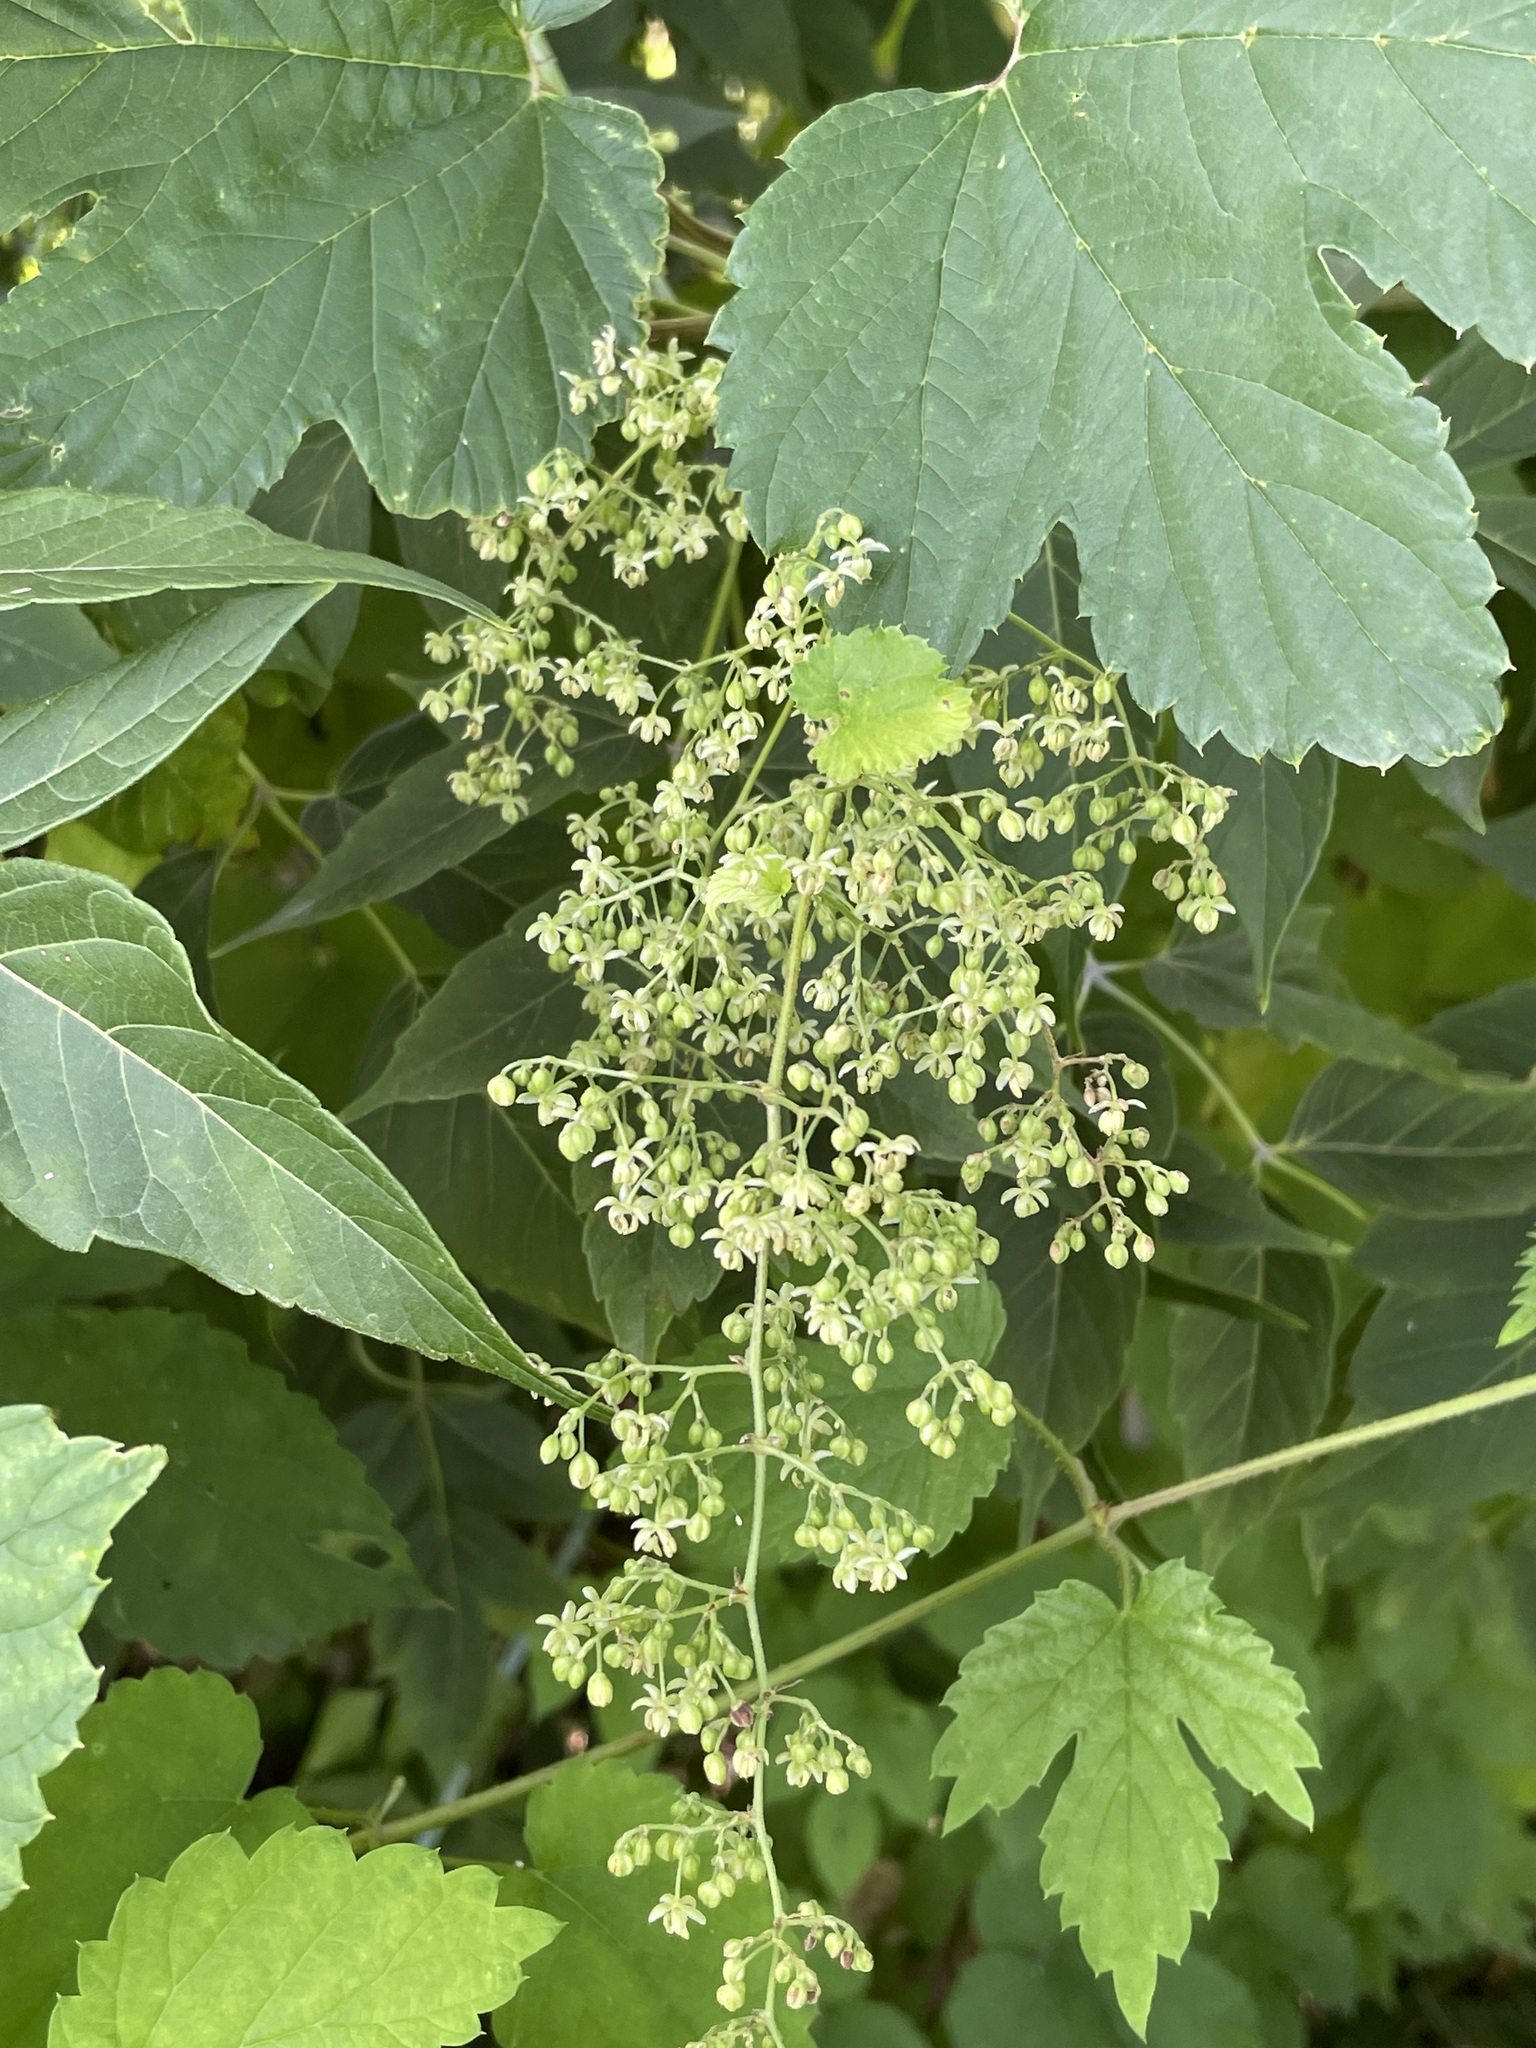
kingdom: Plantae
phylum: Tracheophyta
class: Magnoliopsida
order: Rosales
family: Cannabaceae
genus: Humulus
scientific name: Humulus lupulus
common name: Hop
